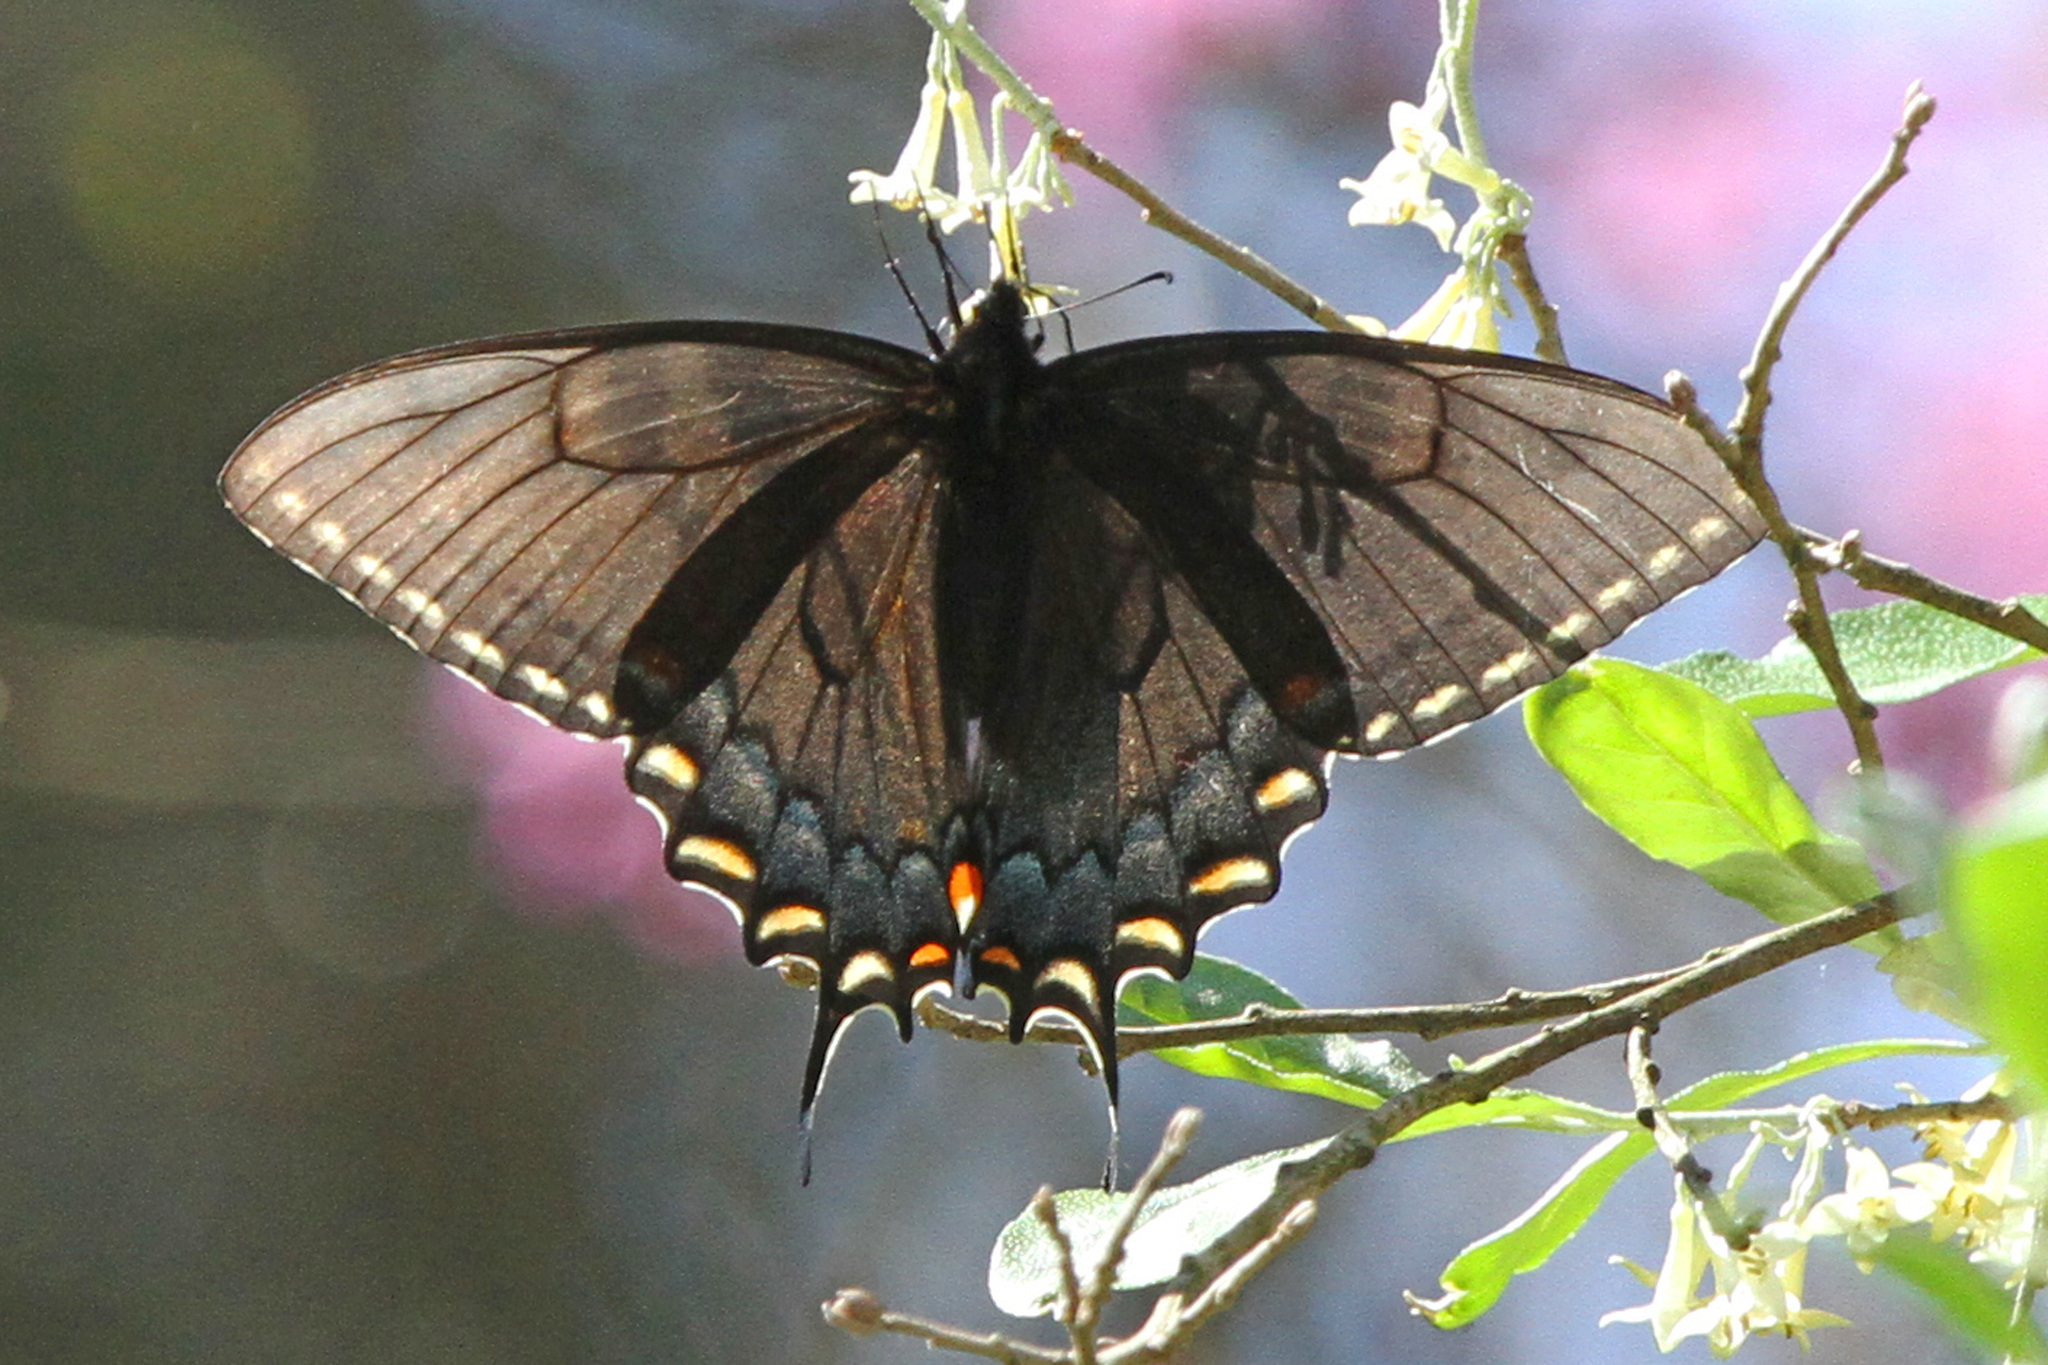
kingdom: Animalia
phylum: Arthropoda
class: Insecta
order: Lepidoptera
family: Papilionidae
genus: Papilio
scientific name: Papilio glaucus
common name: Tiger swallowtail
